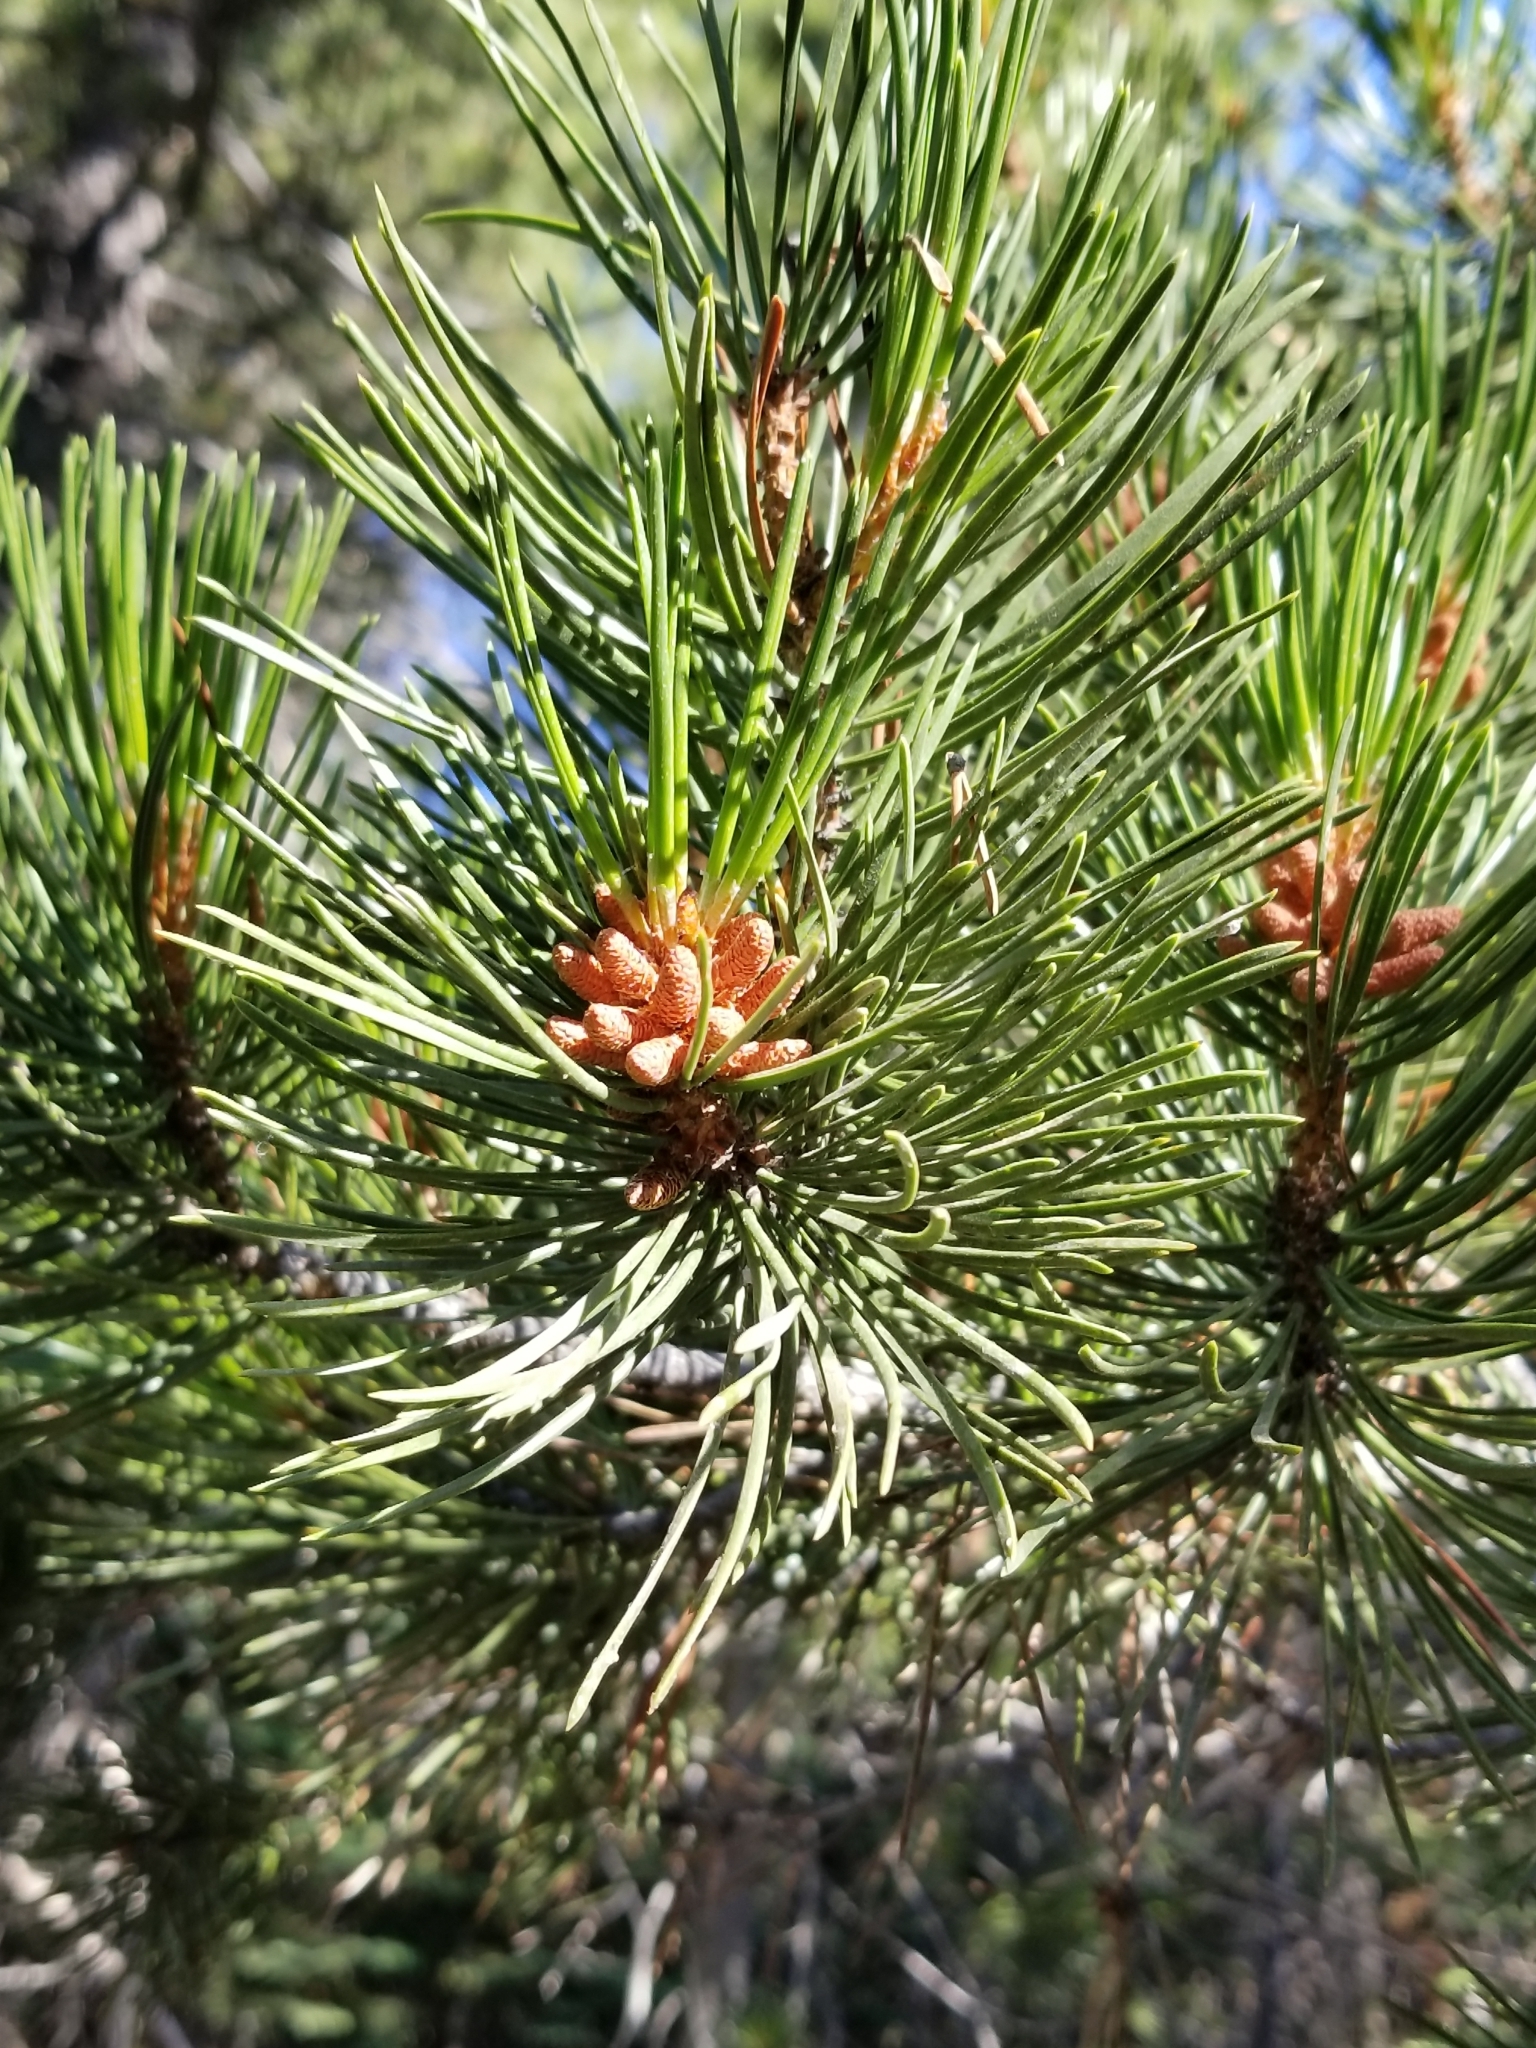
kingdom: Plantae
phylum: Tracheophyta
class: Pinopsida
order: Pinales
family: Pinaceae
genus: Pinus
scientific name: Pinus contorta
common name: Lodgepole pine
